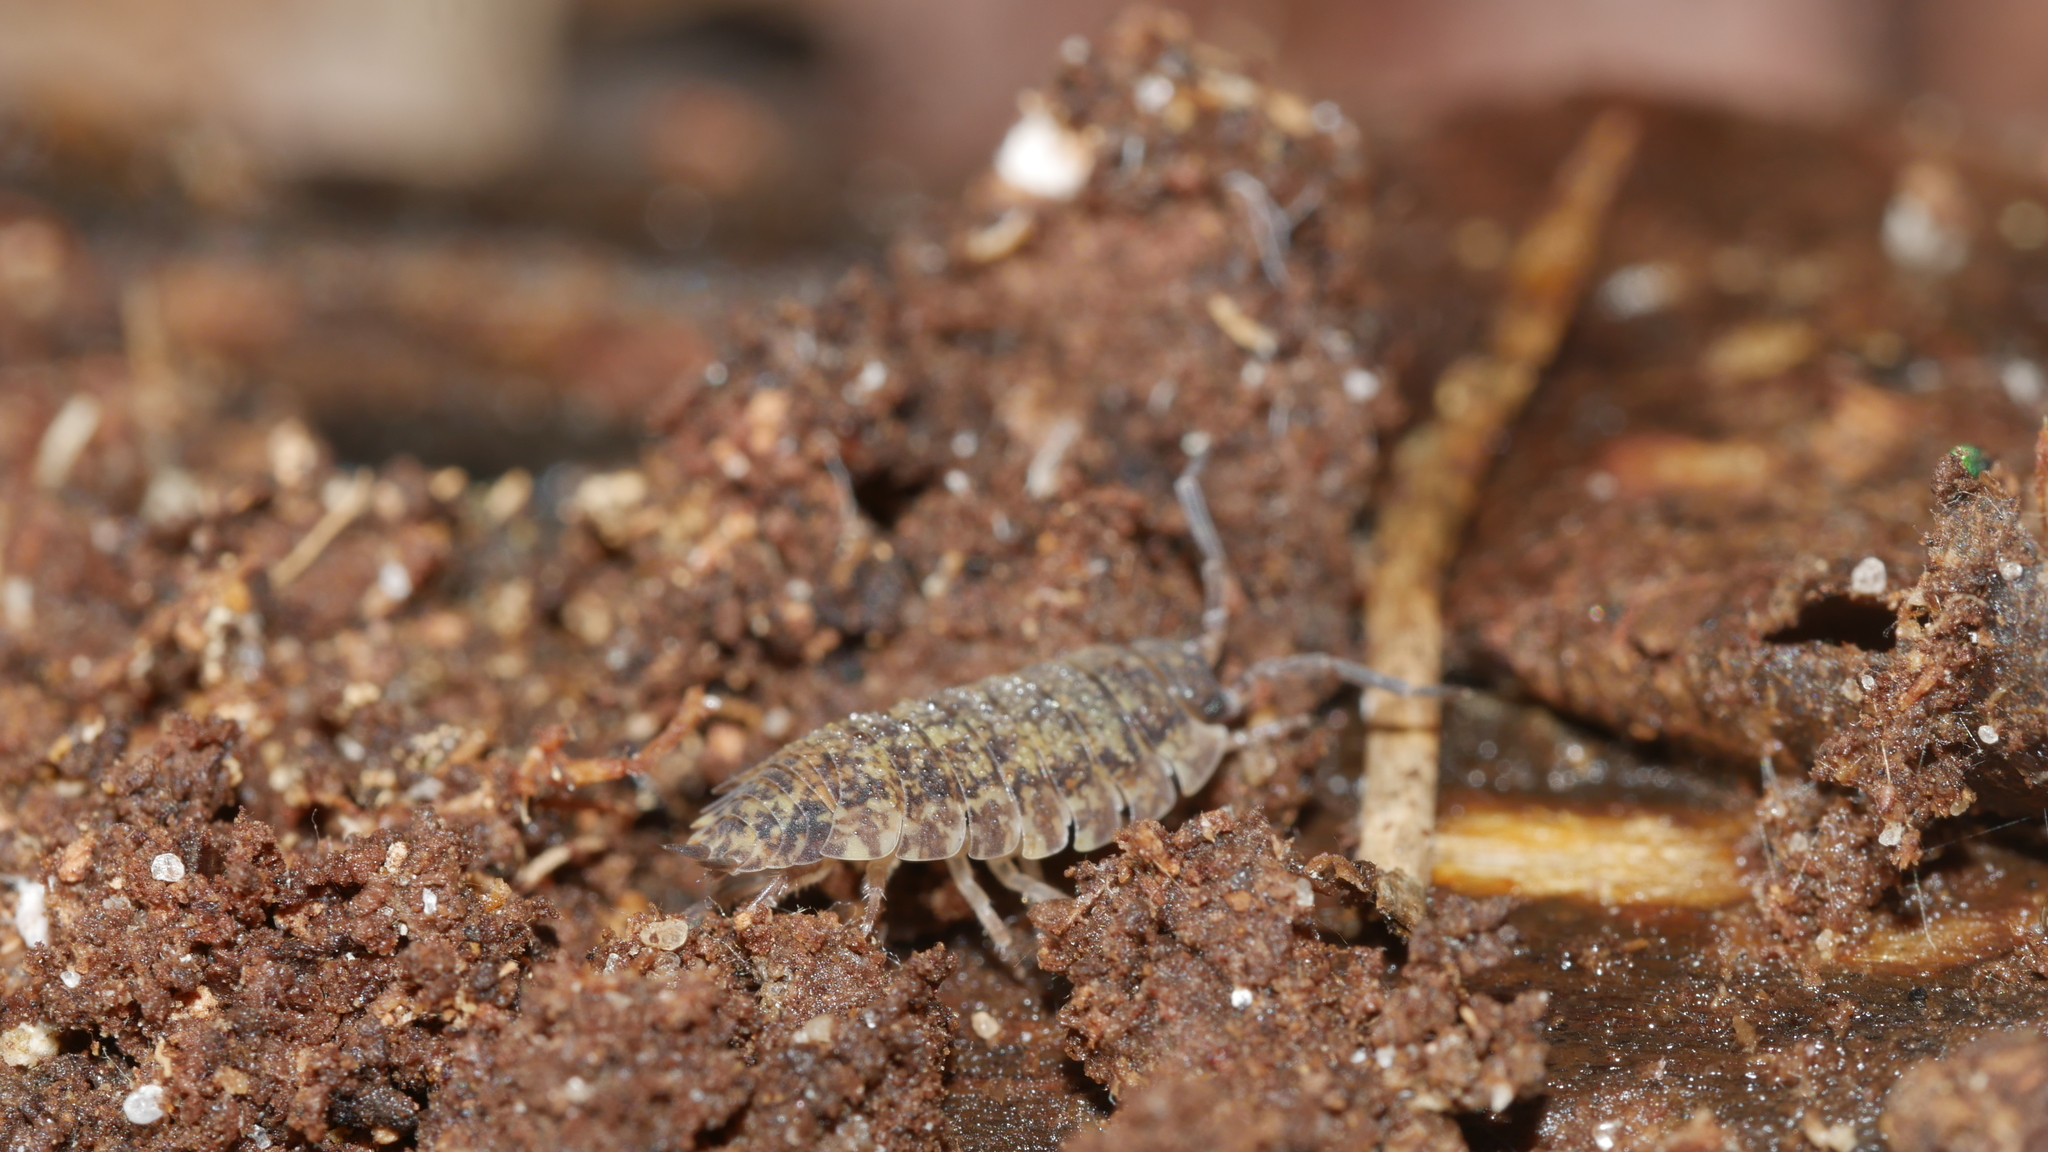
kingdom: Animalia
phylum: Arthropoda
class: Malacostraca
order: Isopoda
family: Porcellionidae
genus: Porcellio
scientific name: Porcellio scaber
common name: Common rough woodlouse
